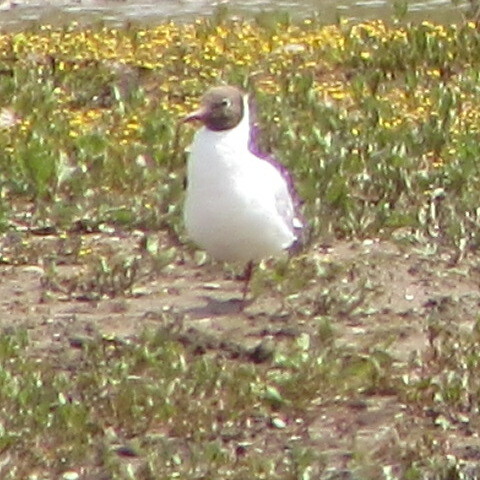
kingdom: Animalia
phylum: Chordata
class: Aves
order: Charadriiformes
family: Laridae
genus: Chroicocephalus
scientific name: Chroicocephalus ridibundus
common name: Black-headed gull
